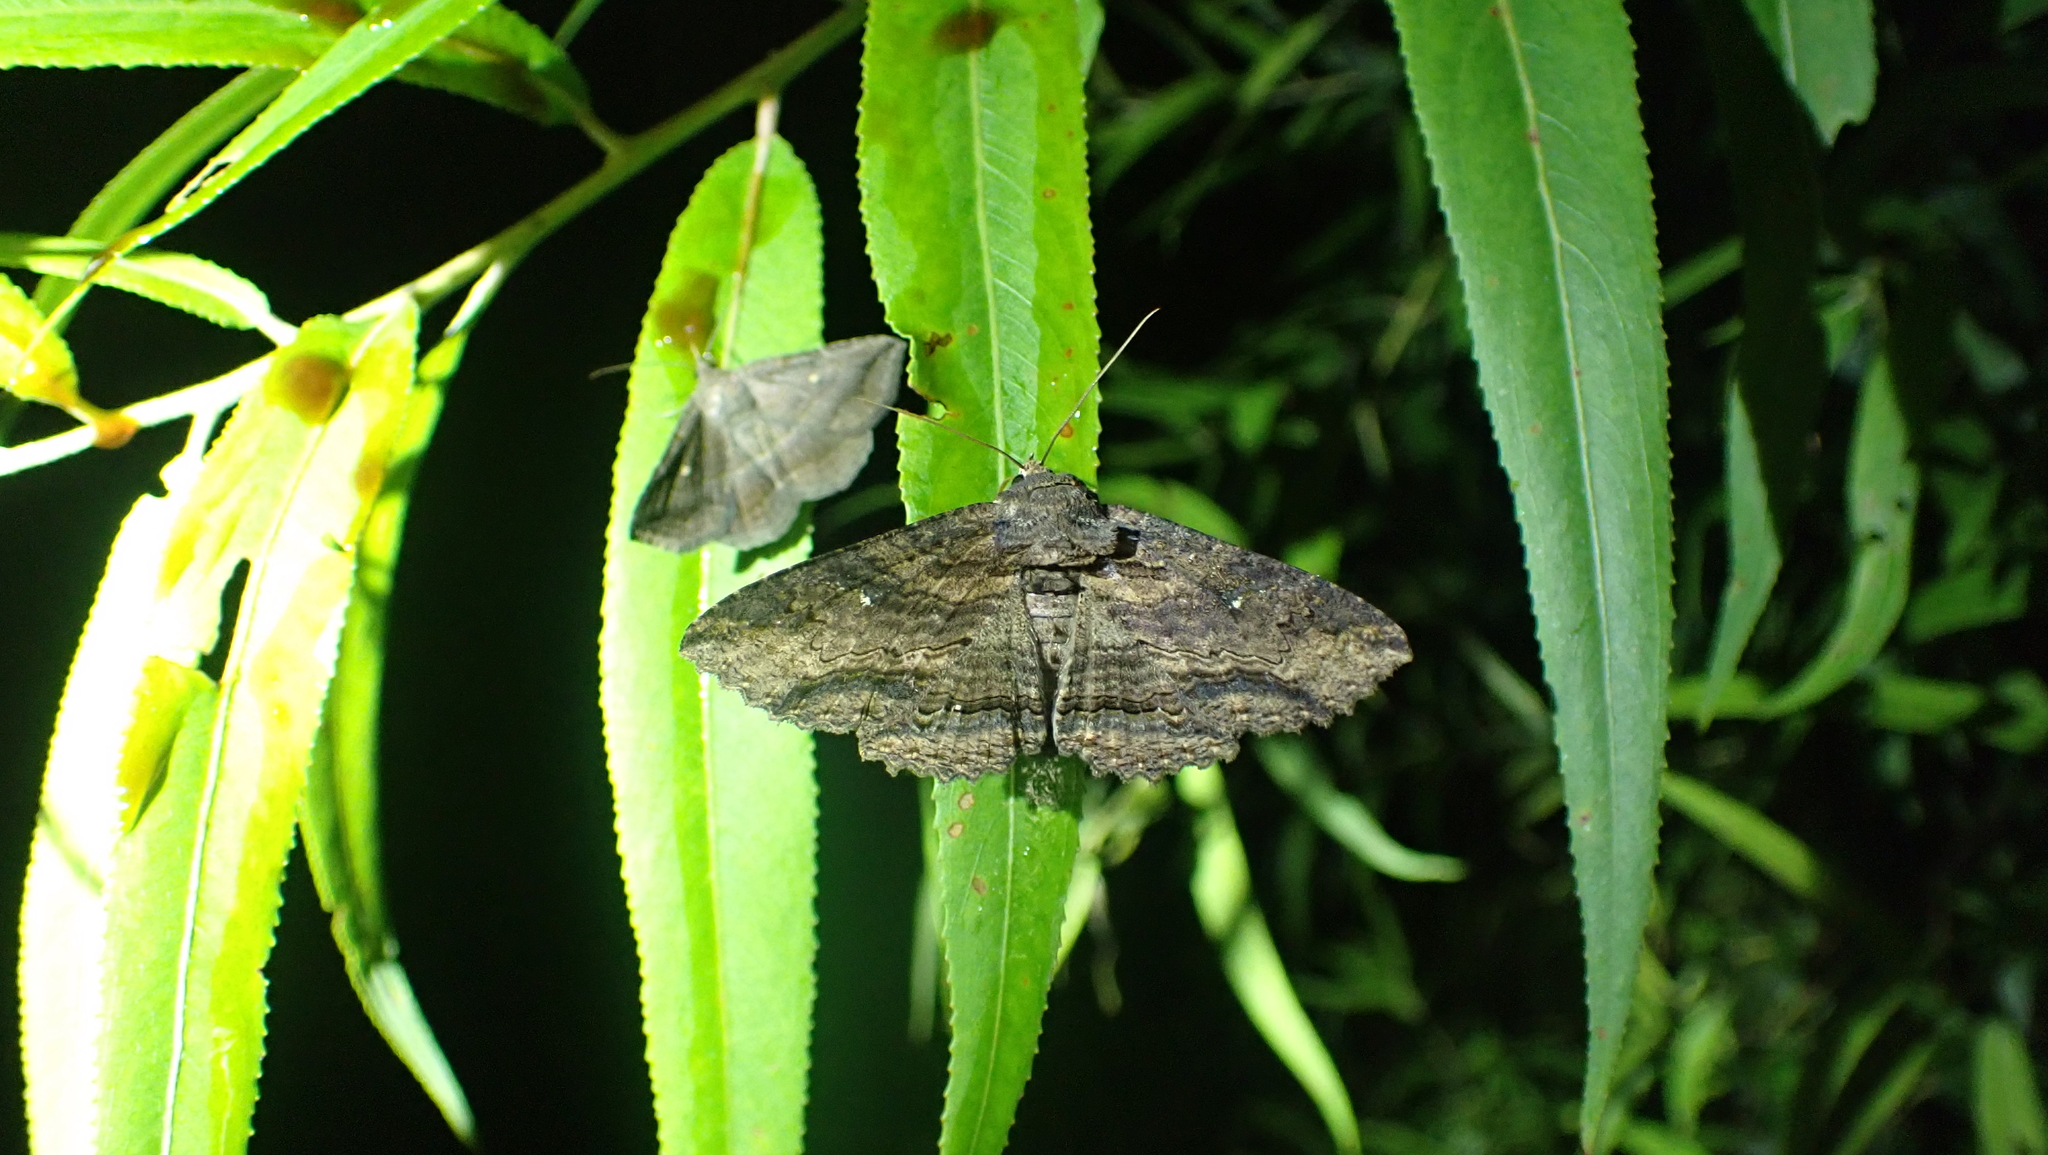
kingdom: Animalia
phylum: Arthropoda
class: Insecta
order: Lepidoptera
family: Erebidae
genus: Zale
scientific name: Zale lunata
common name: Lunate zale moth
